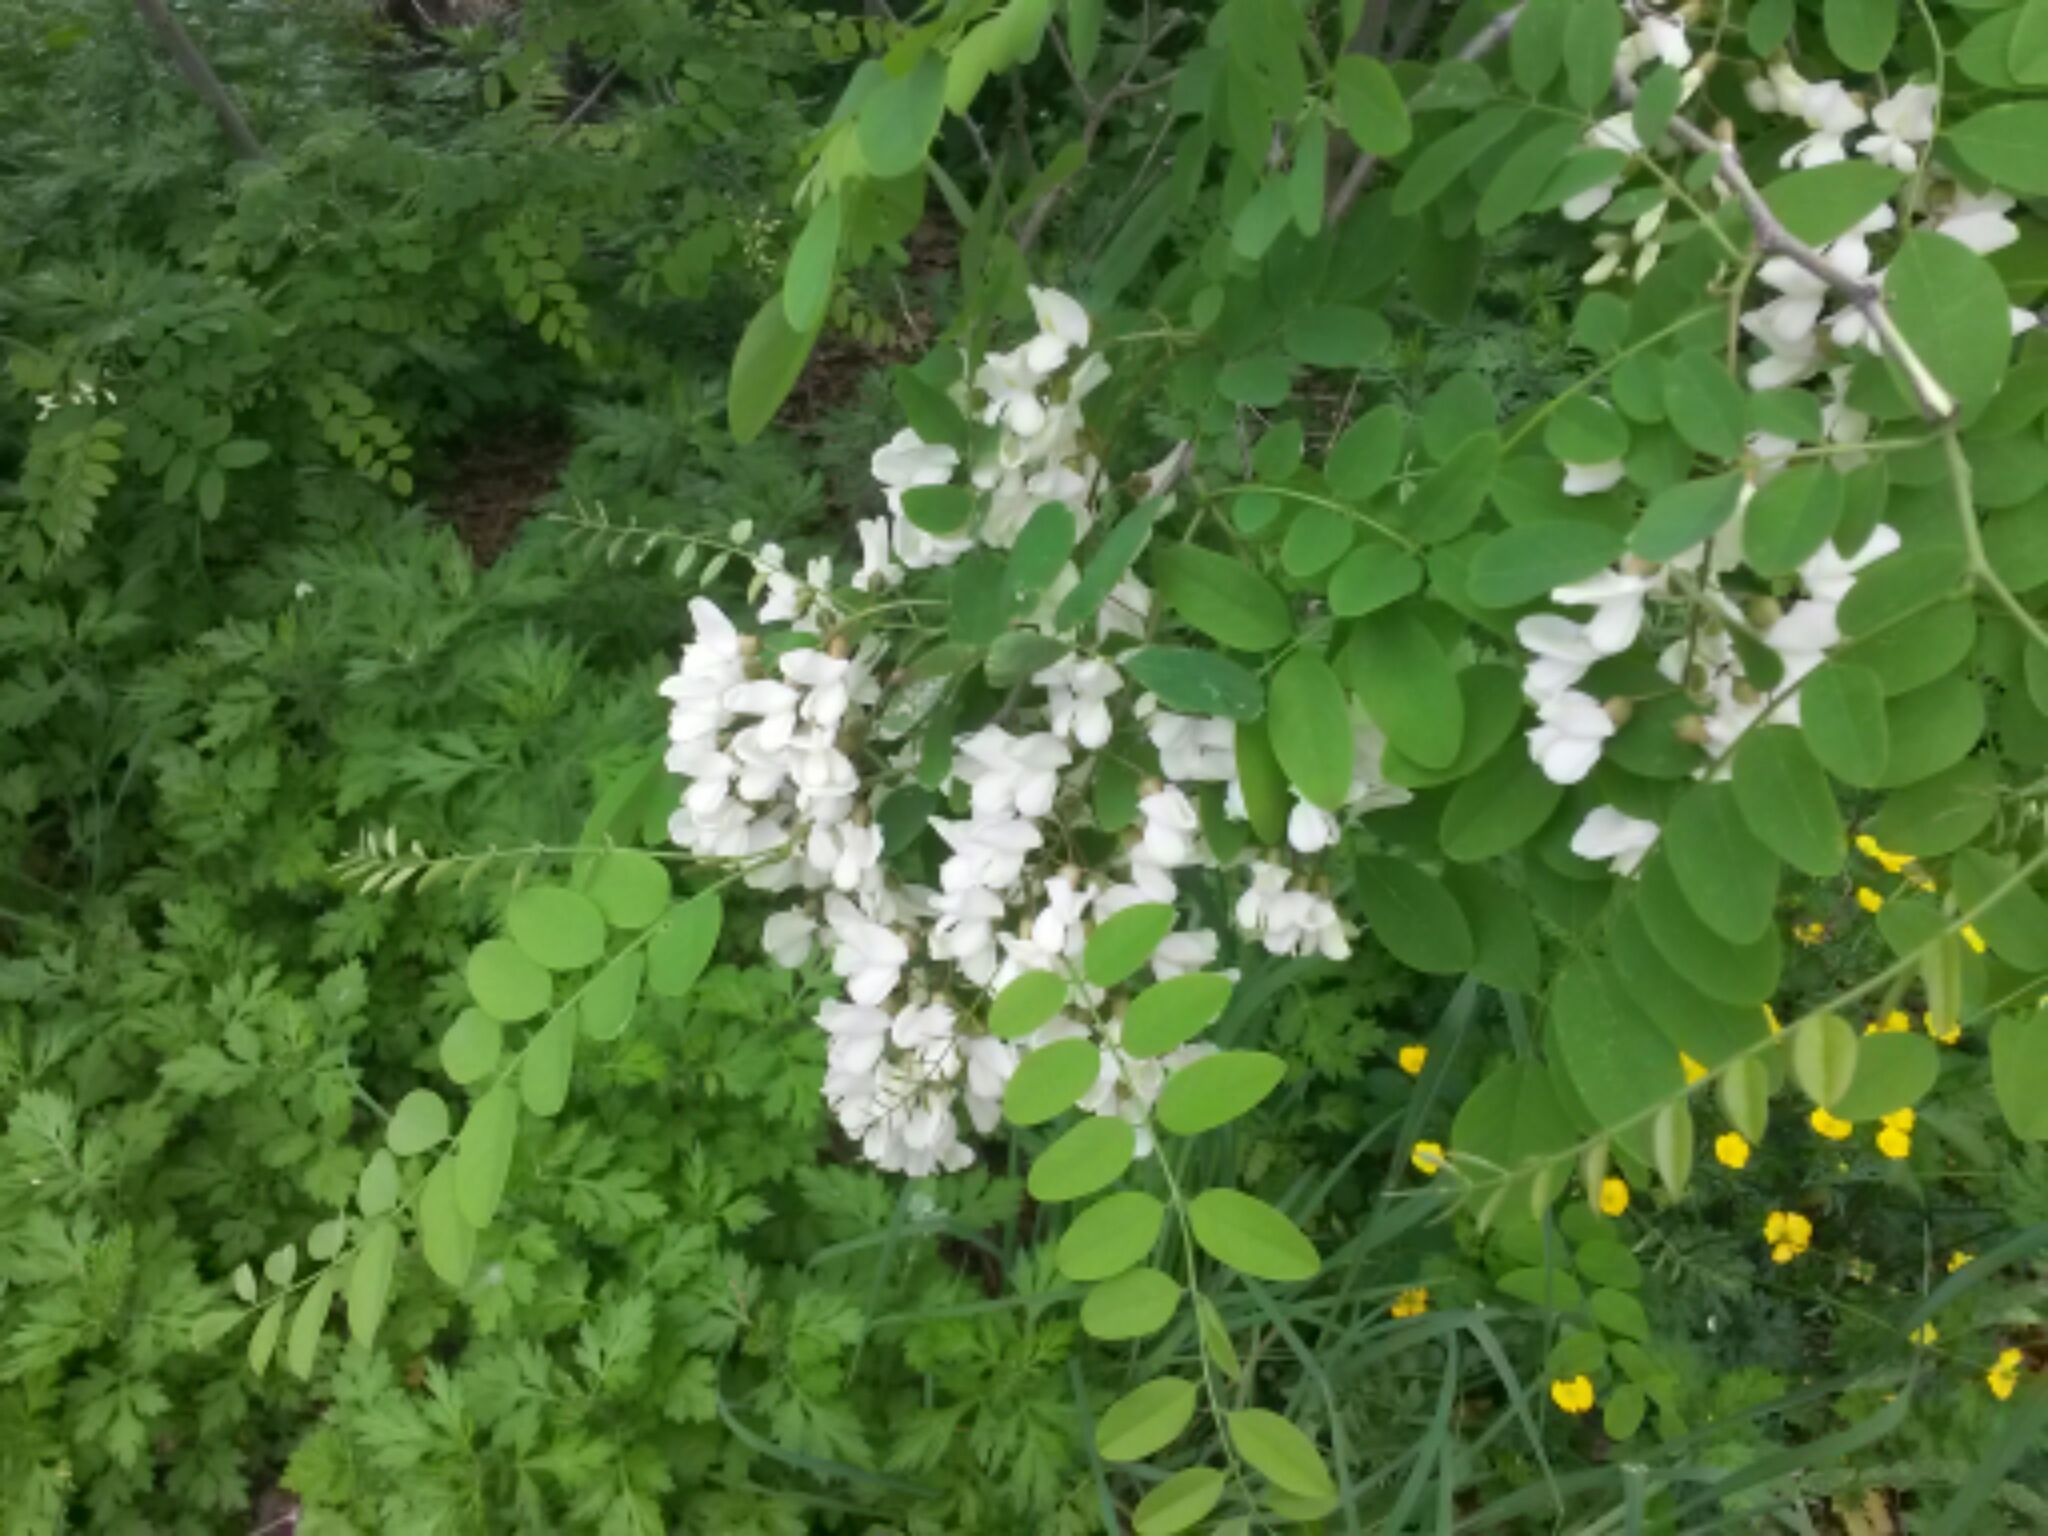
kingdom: Plantae
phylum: Tracheophyta
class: Magnoliopsida
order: Fabales
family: Fabaceae
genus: Robinia
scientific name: Robinia pseudoacacia
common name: Black locust
